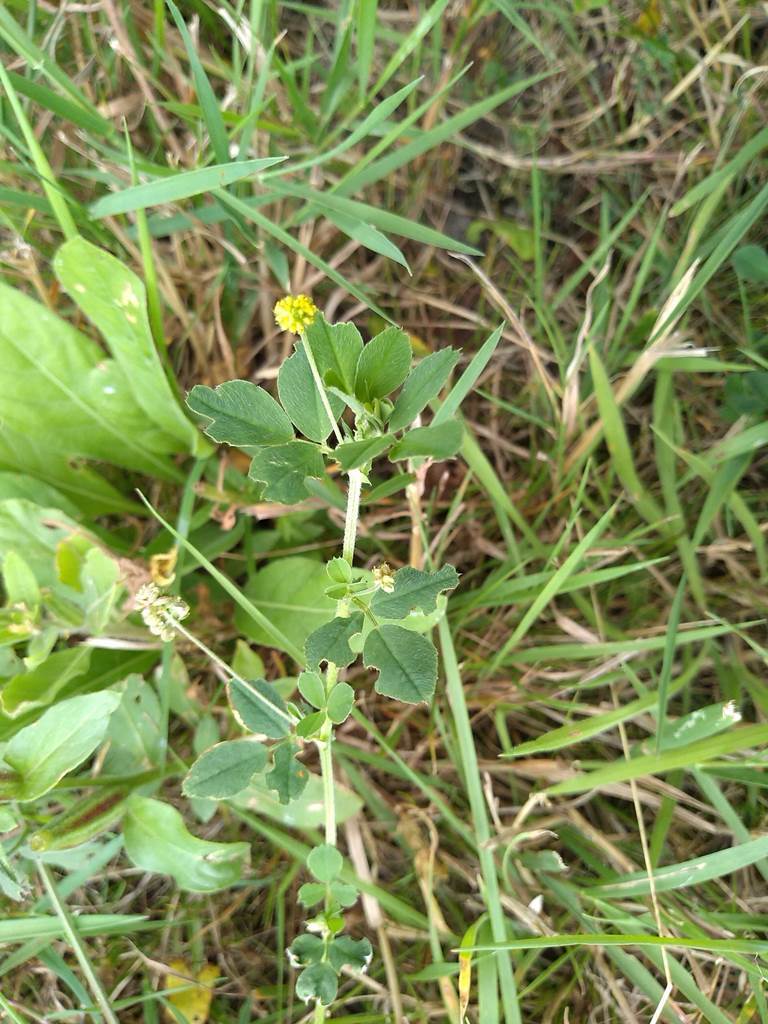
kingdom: Plantae
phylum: Tracheophyta
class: Magnoliopsida
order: Fabales
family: Fabaceae
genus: Medicago
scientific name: Medicago lupulina
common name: Black medick
